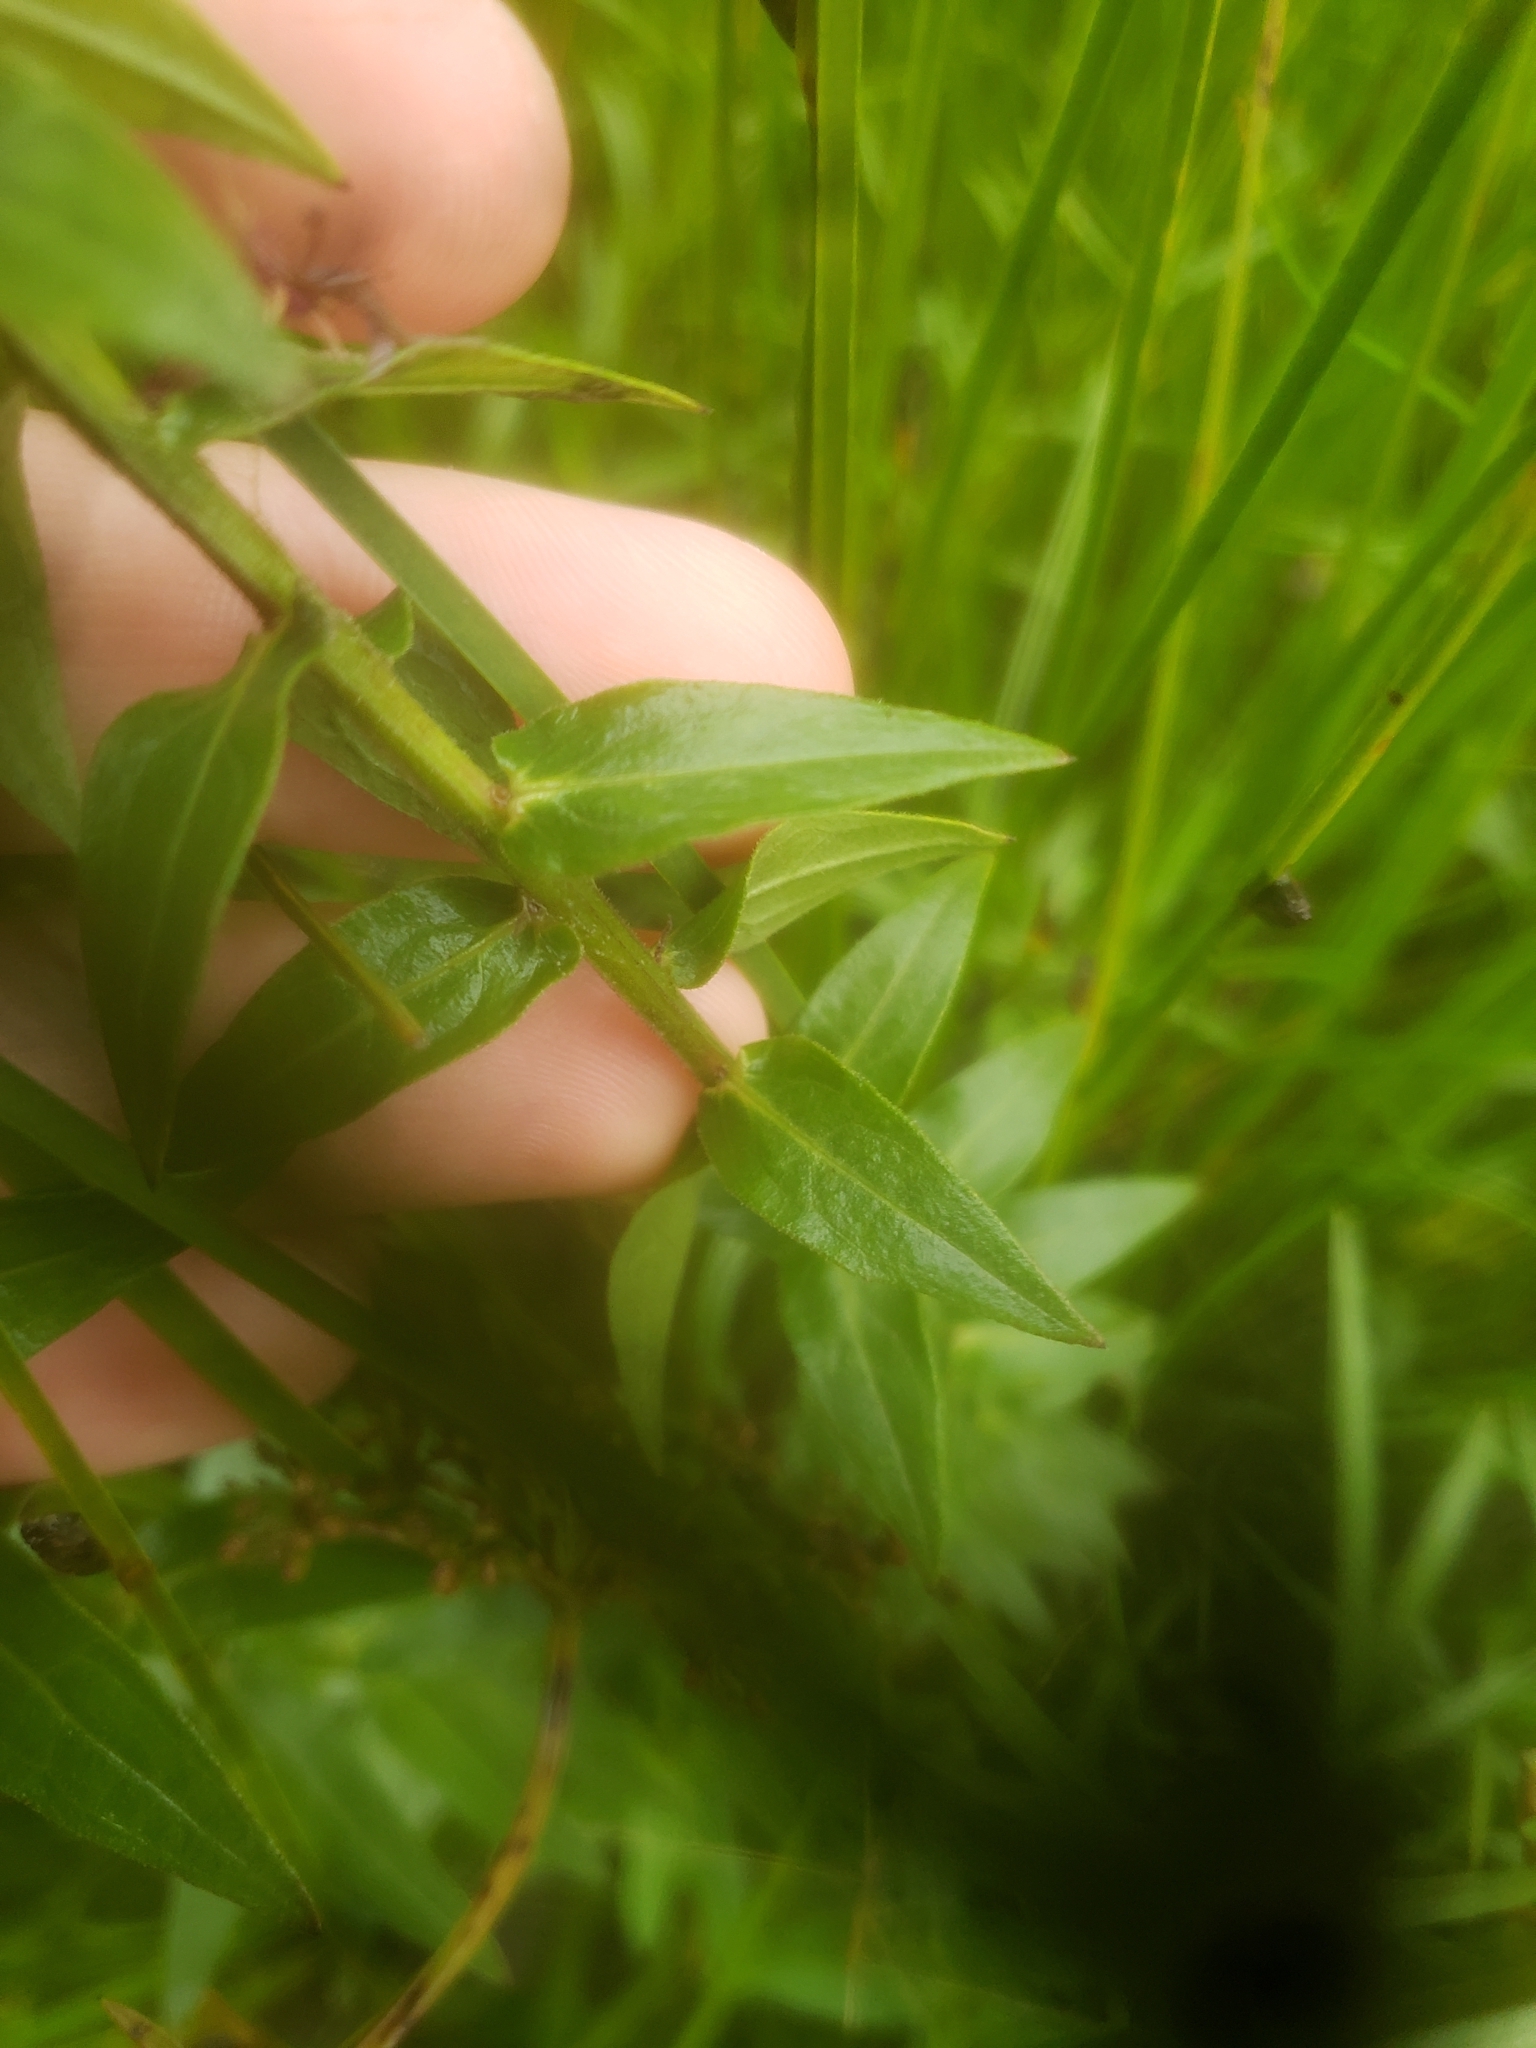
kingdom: Plantae
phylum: Tracheophyta
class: Magnoliopsida
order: Myrtales
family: Lythraceae
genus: Lythrum
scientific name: Lythrum salicaria
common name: Purple loosestrife
